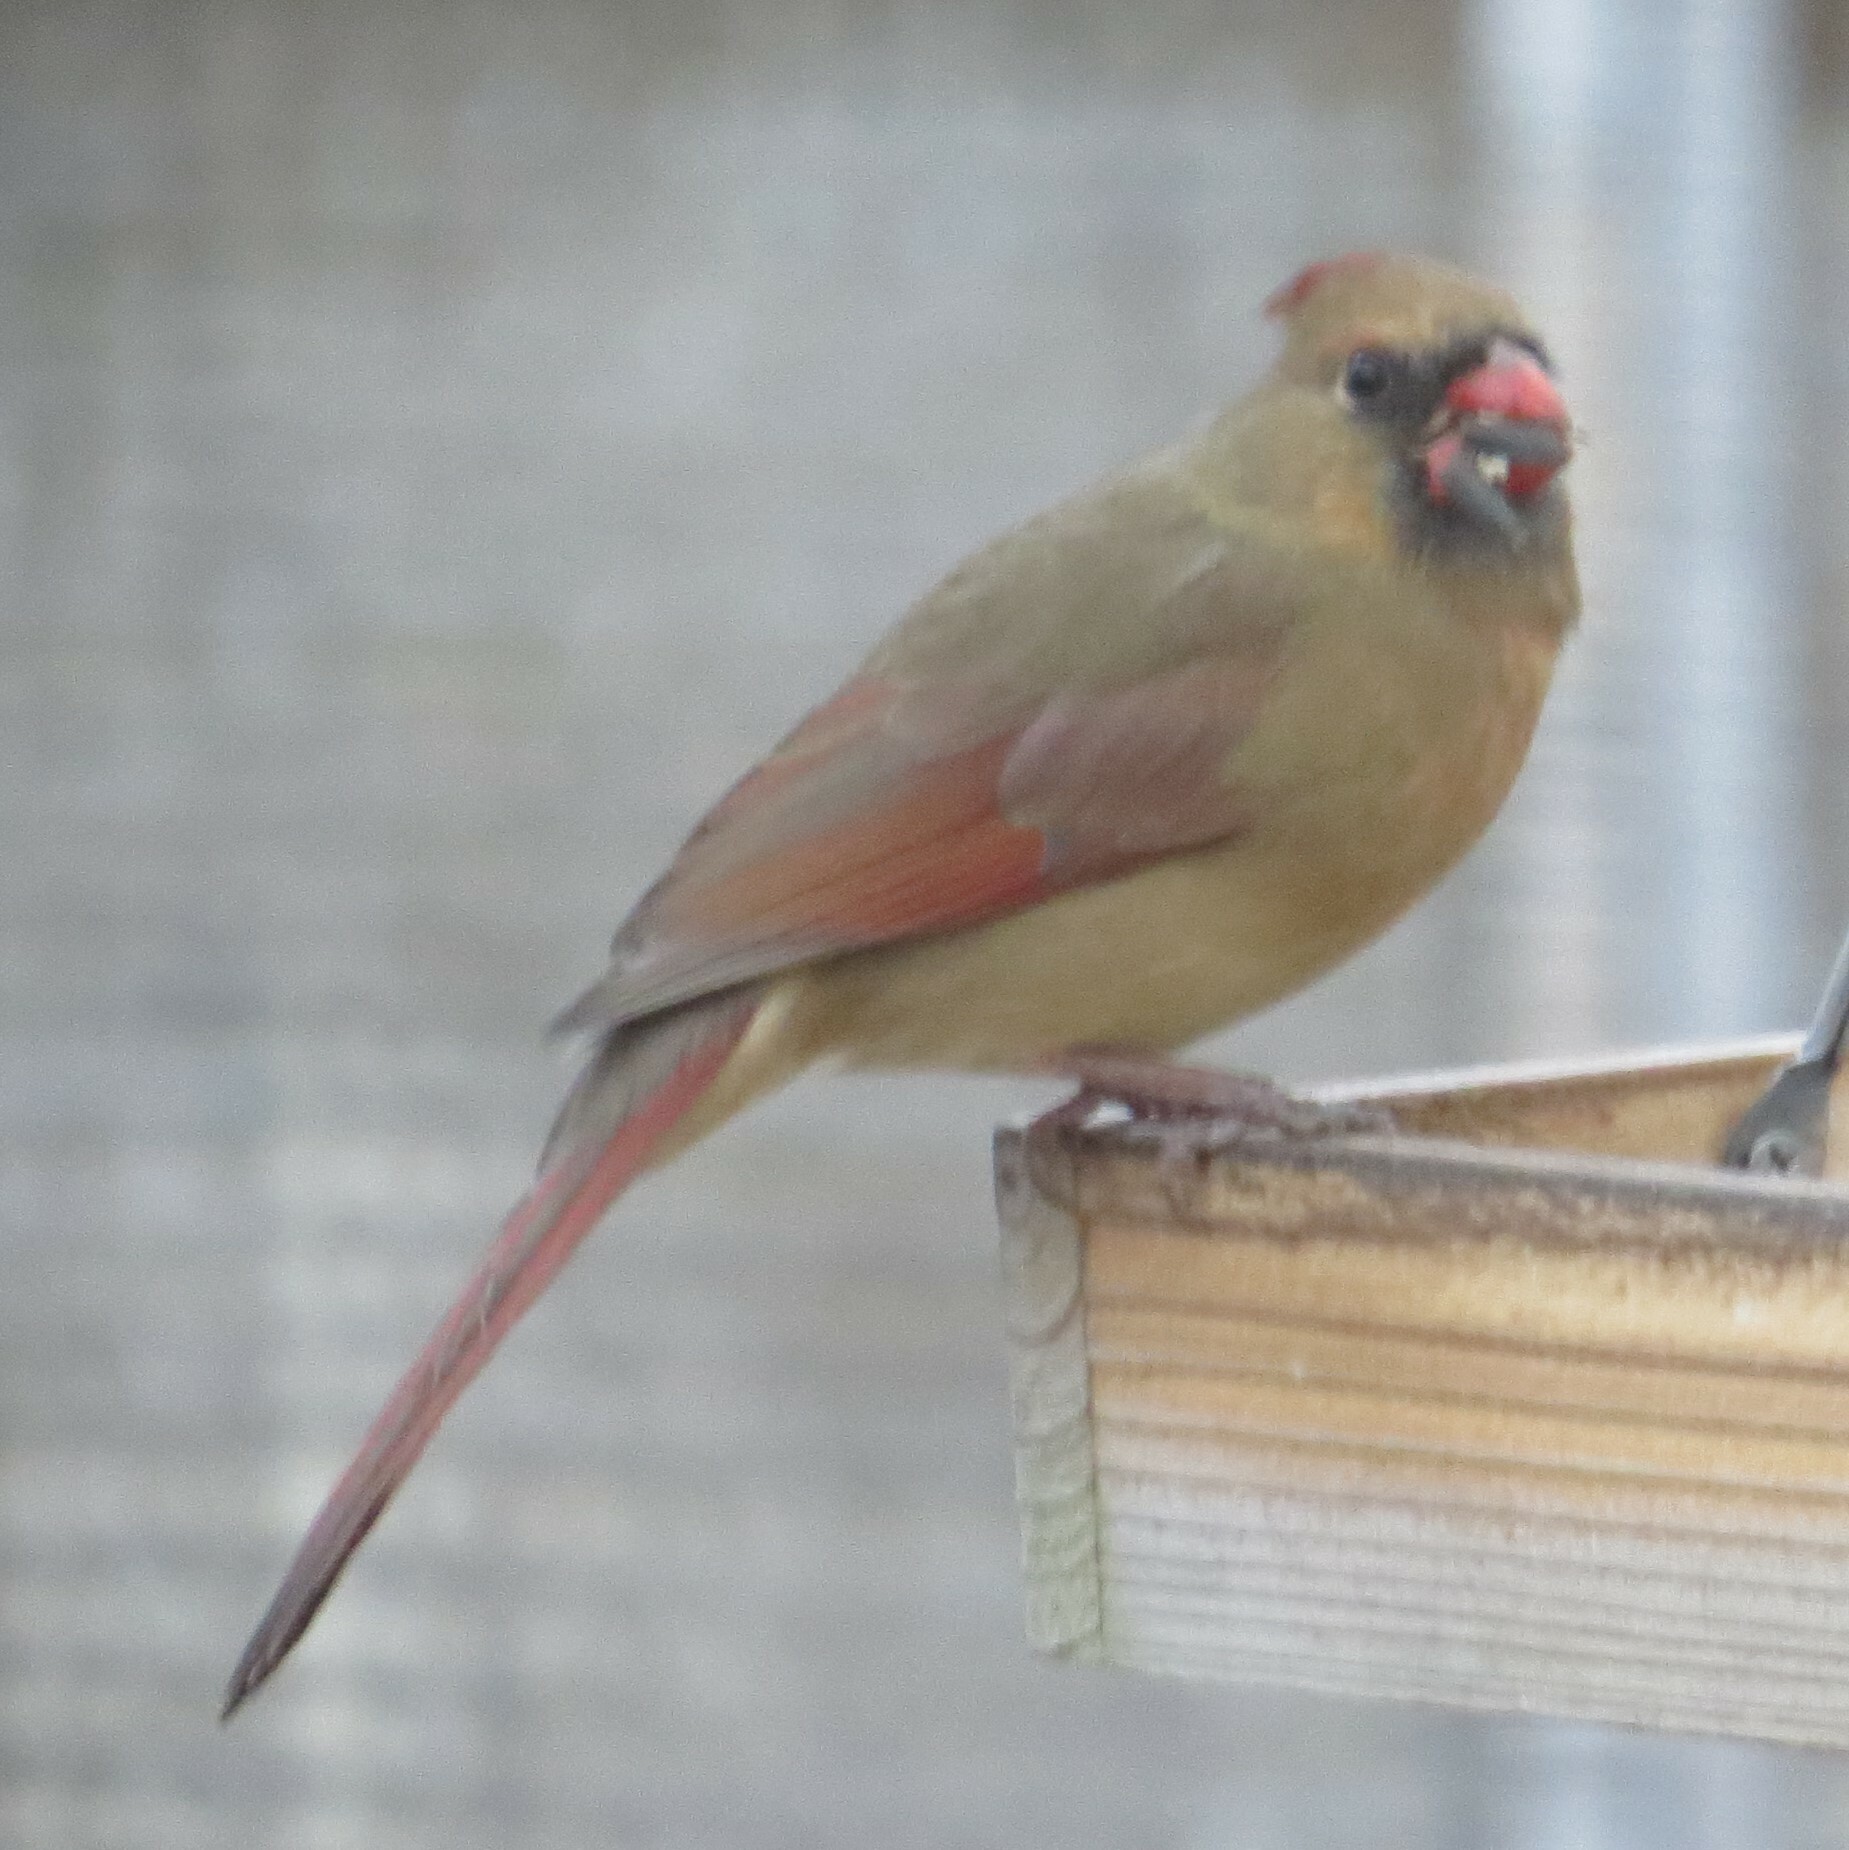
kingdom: Animalia
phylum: Chordata
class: Aves
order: Passeriformes
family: Cardinalidae
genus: Cardinalis
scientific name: Cardinalis cardinalis
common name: Northern cardinal
